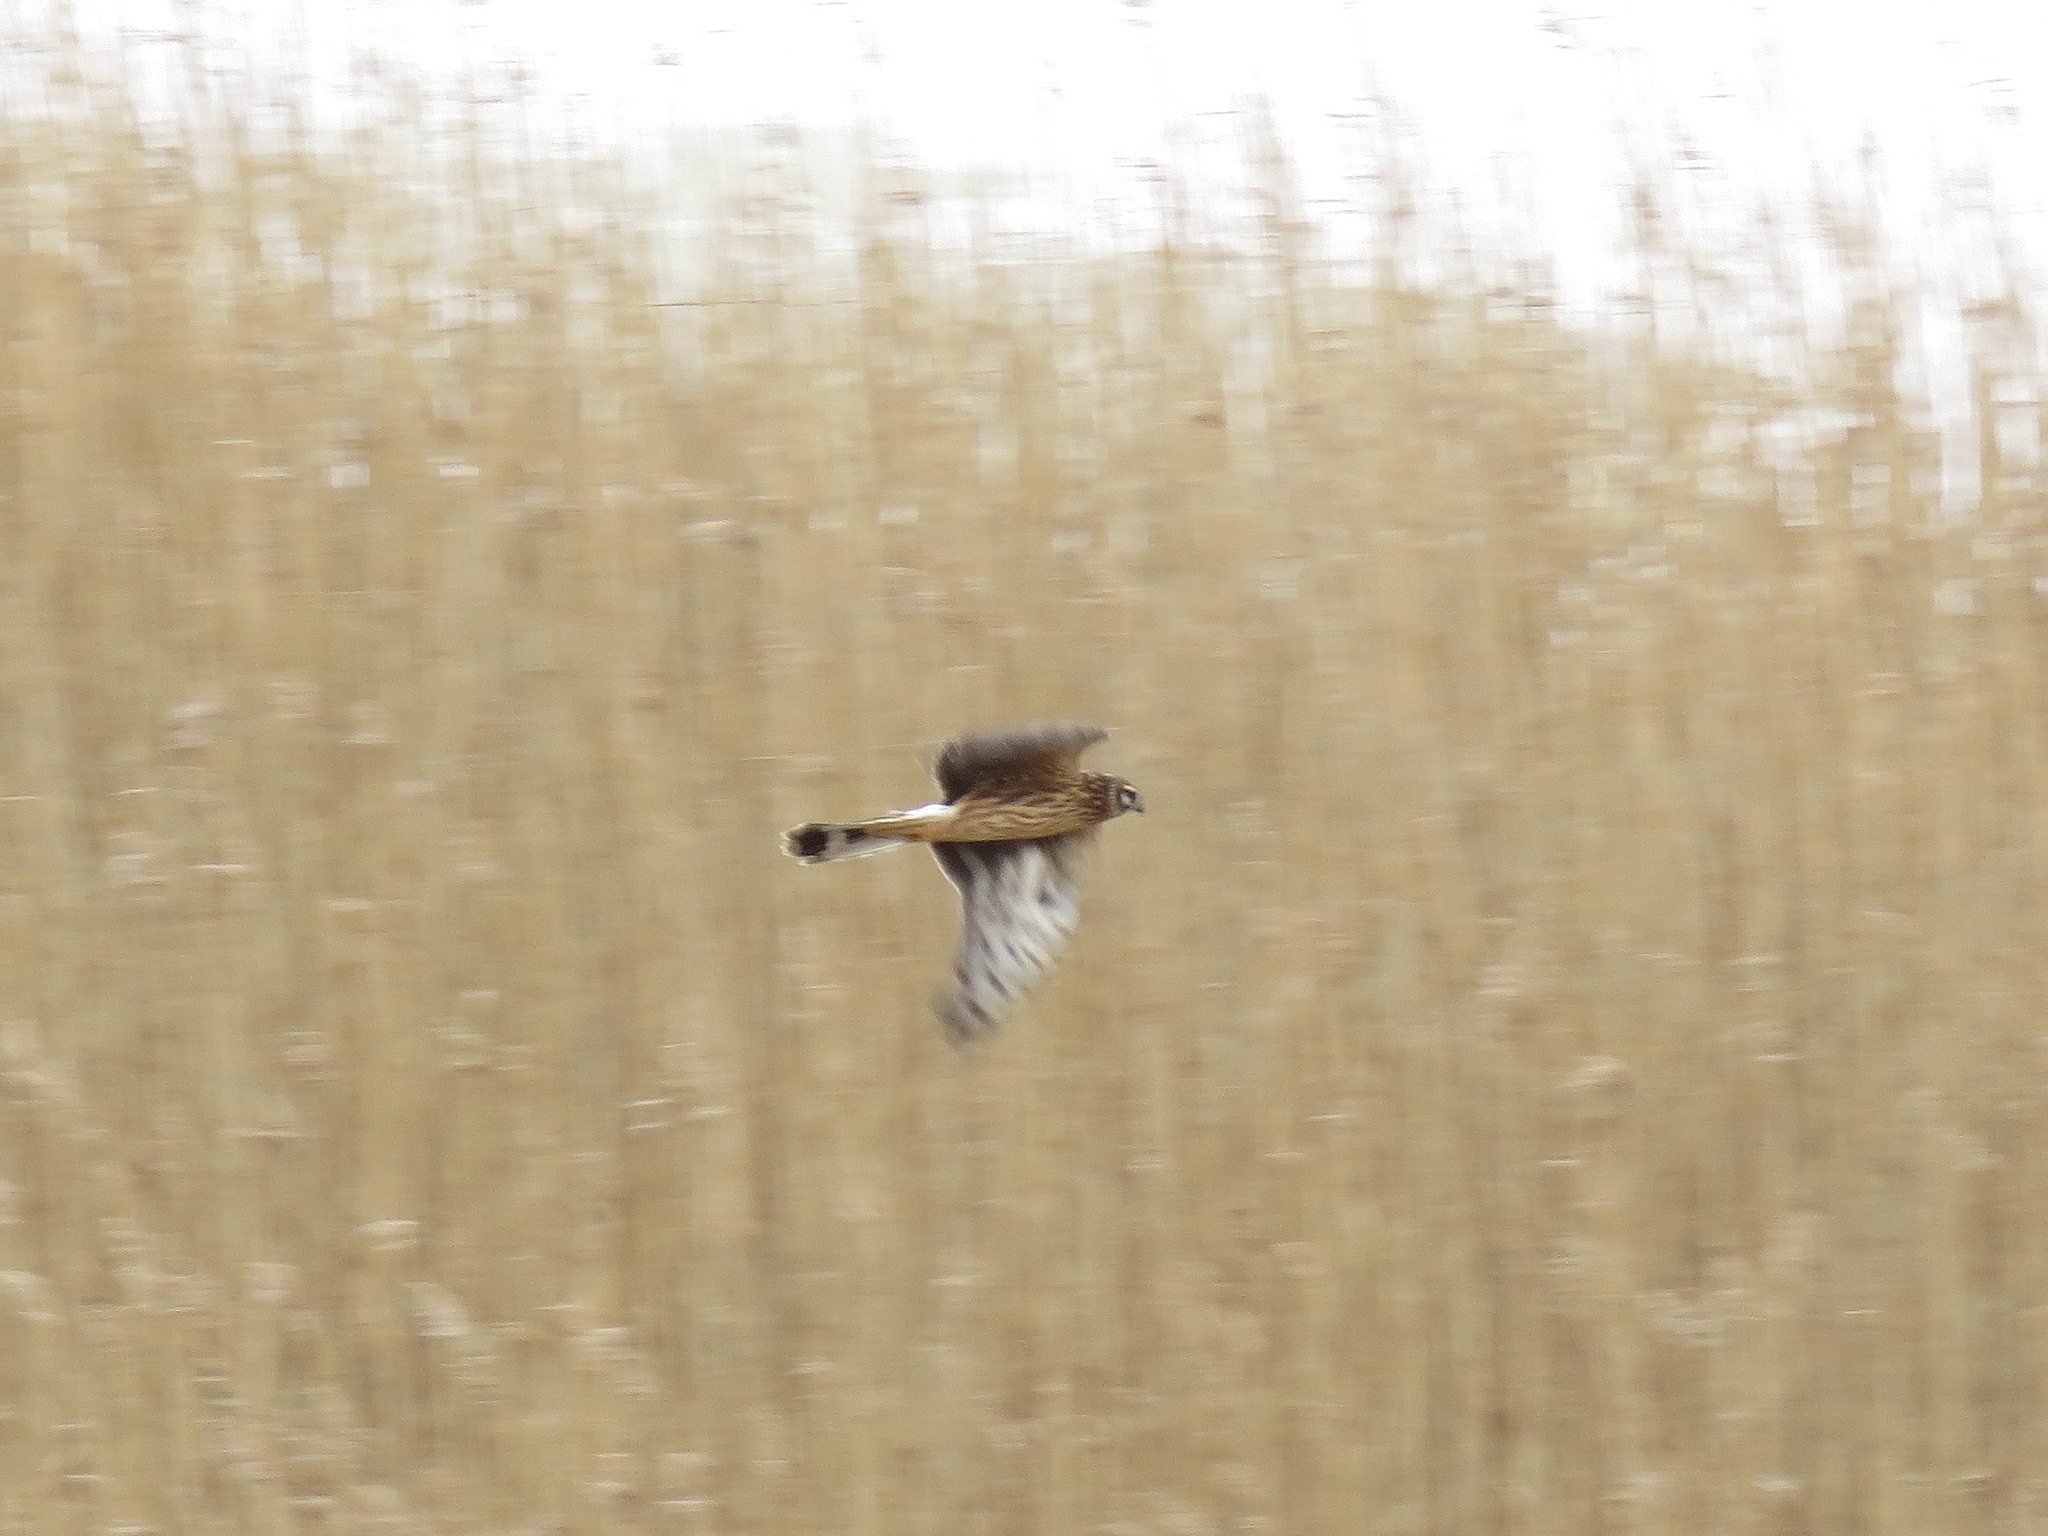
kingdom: Animalia
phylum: Chordata
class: Aves
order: Accipitriformes
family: Accipitridae
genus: Circus
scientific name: Circus cyaneus
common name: Hen harrier
